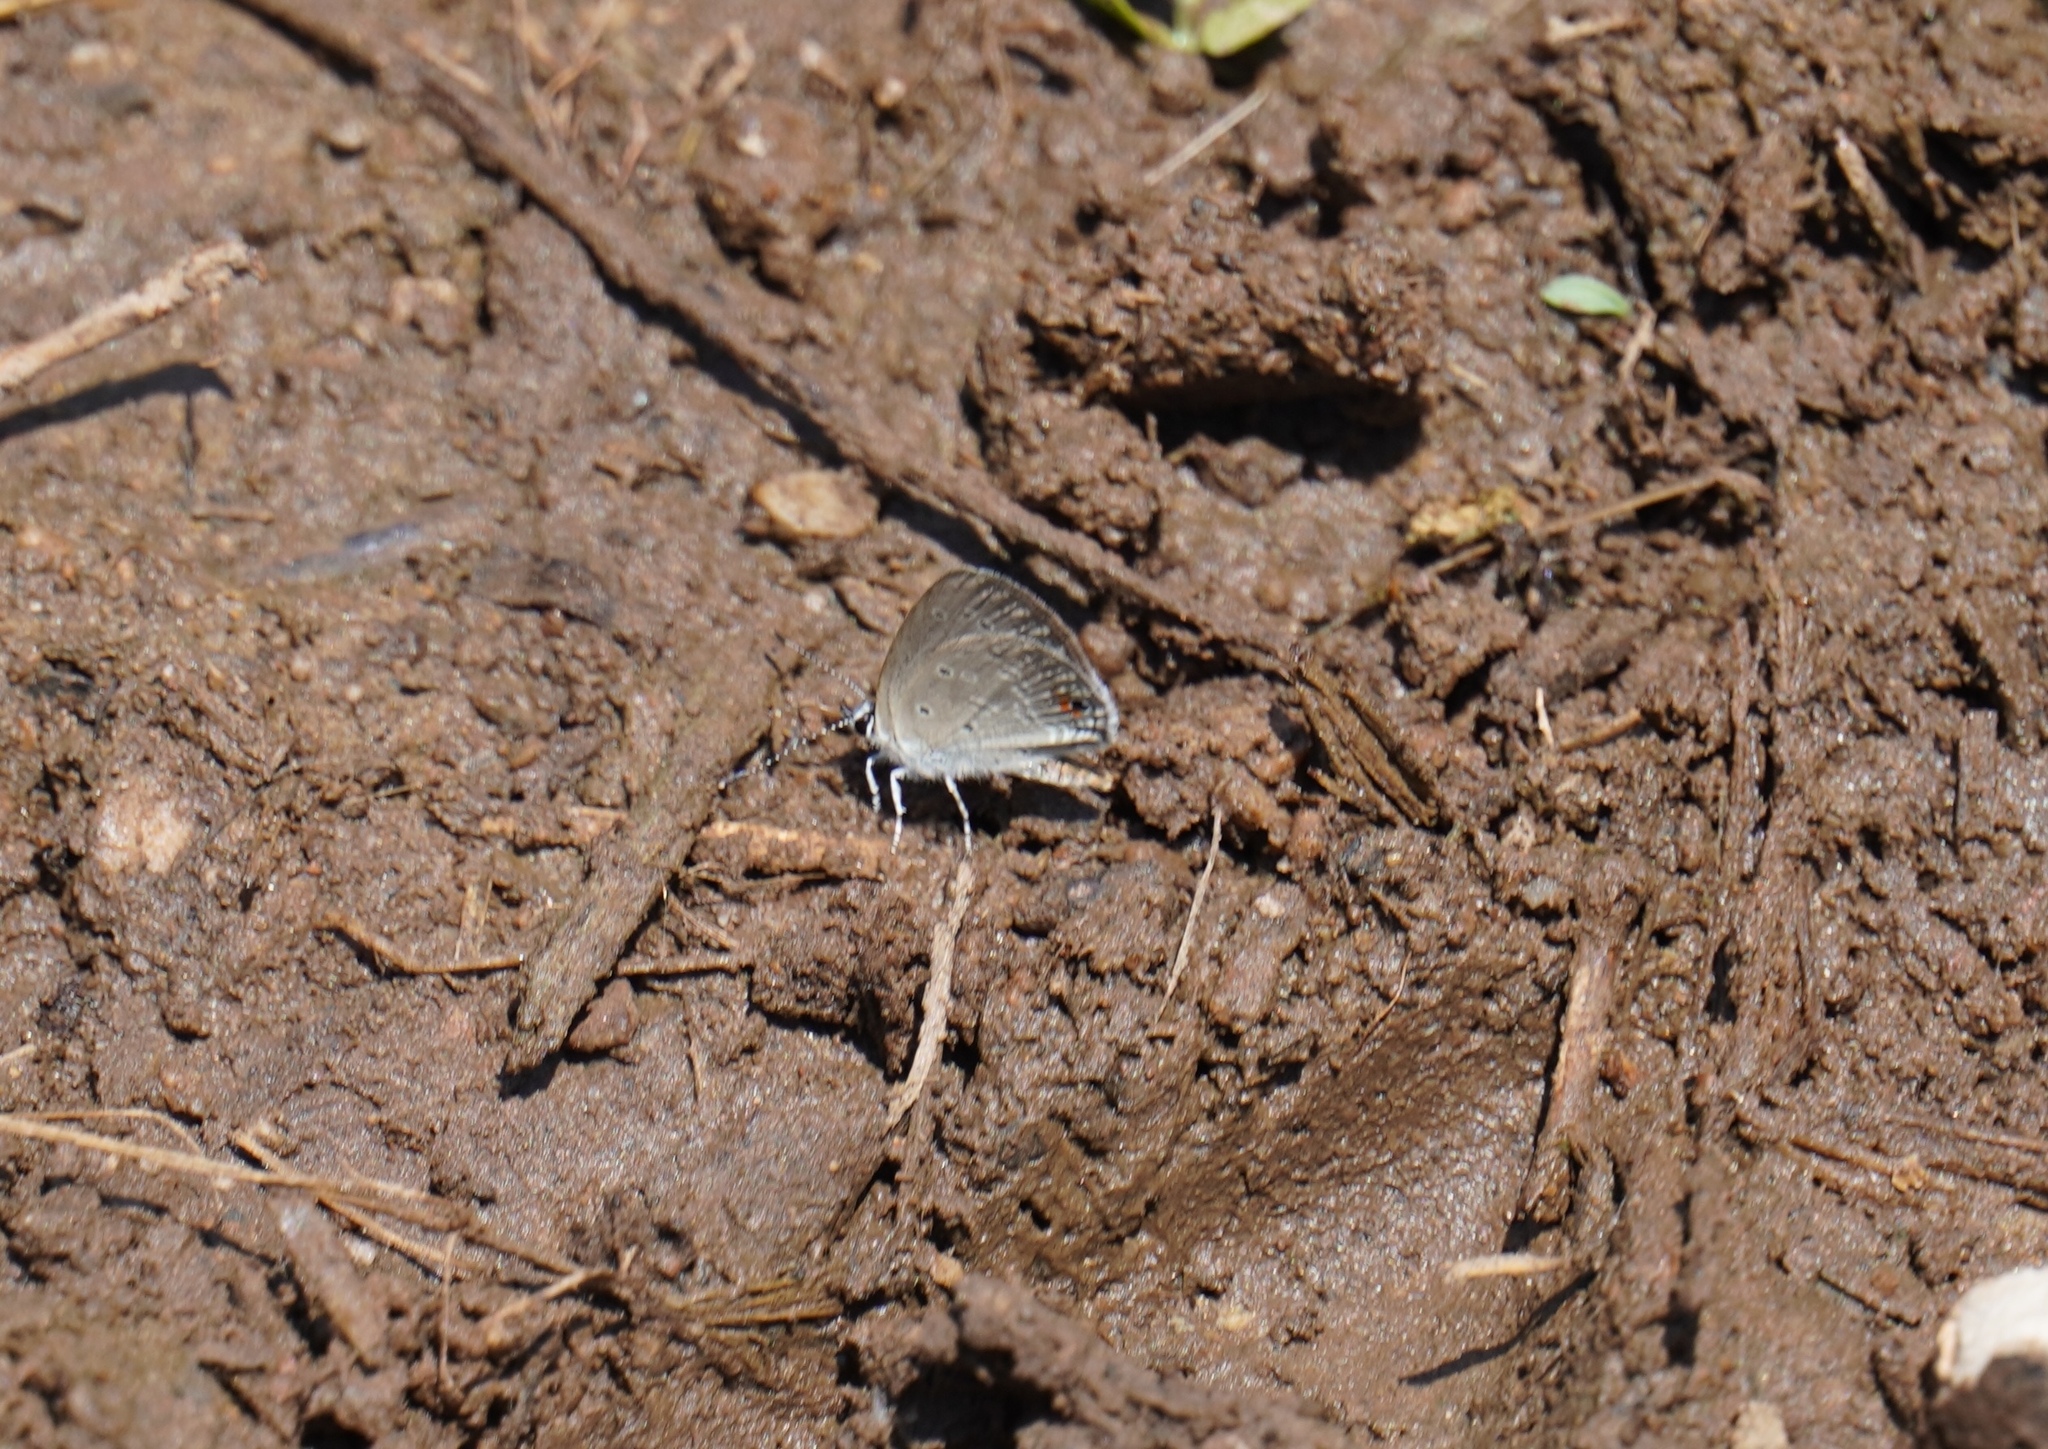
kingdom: Animalia
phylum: Arthropoda
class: Insecta
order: Lepidoptera
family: Lycaenidae
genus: Eicochrysops
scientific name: Eicochrysops messapus
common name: Cupreous blue
